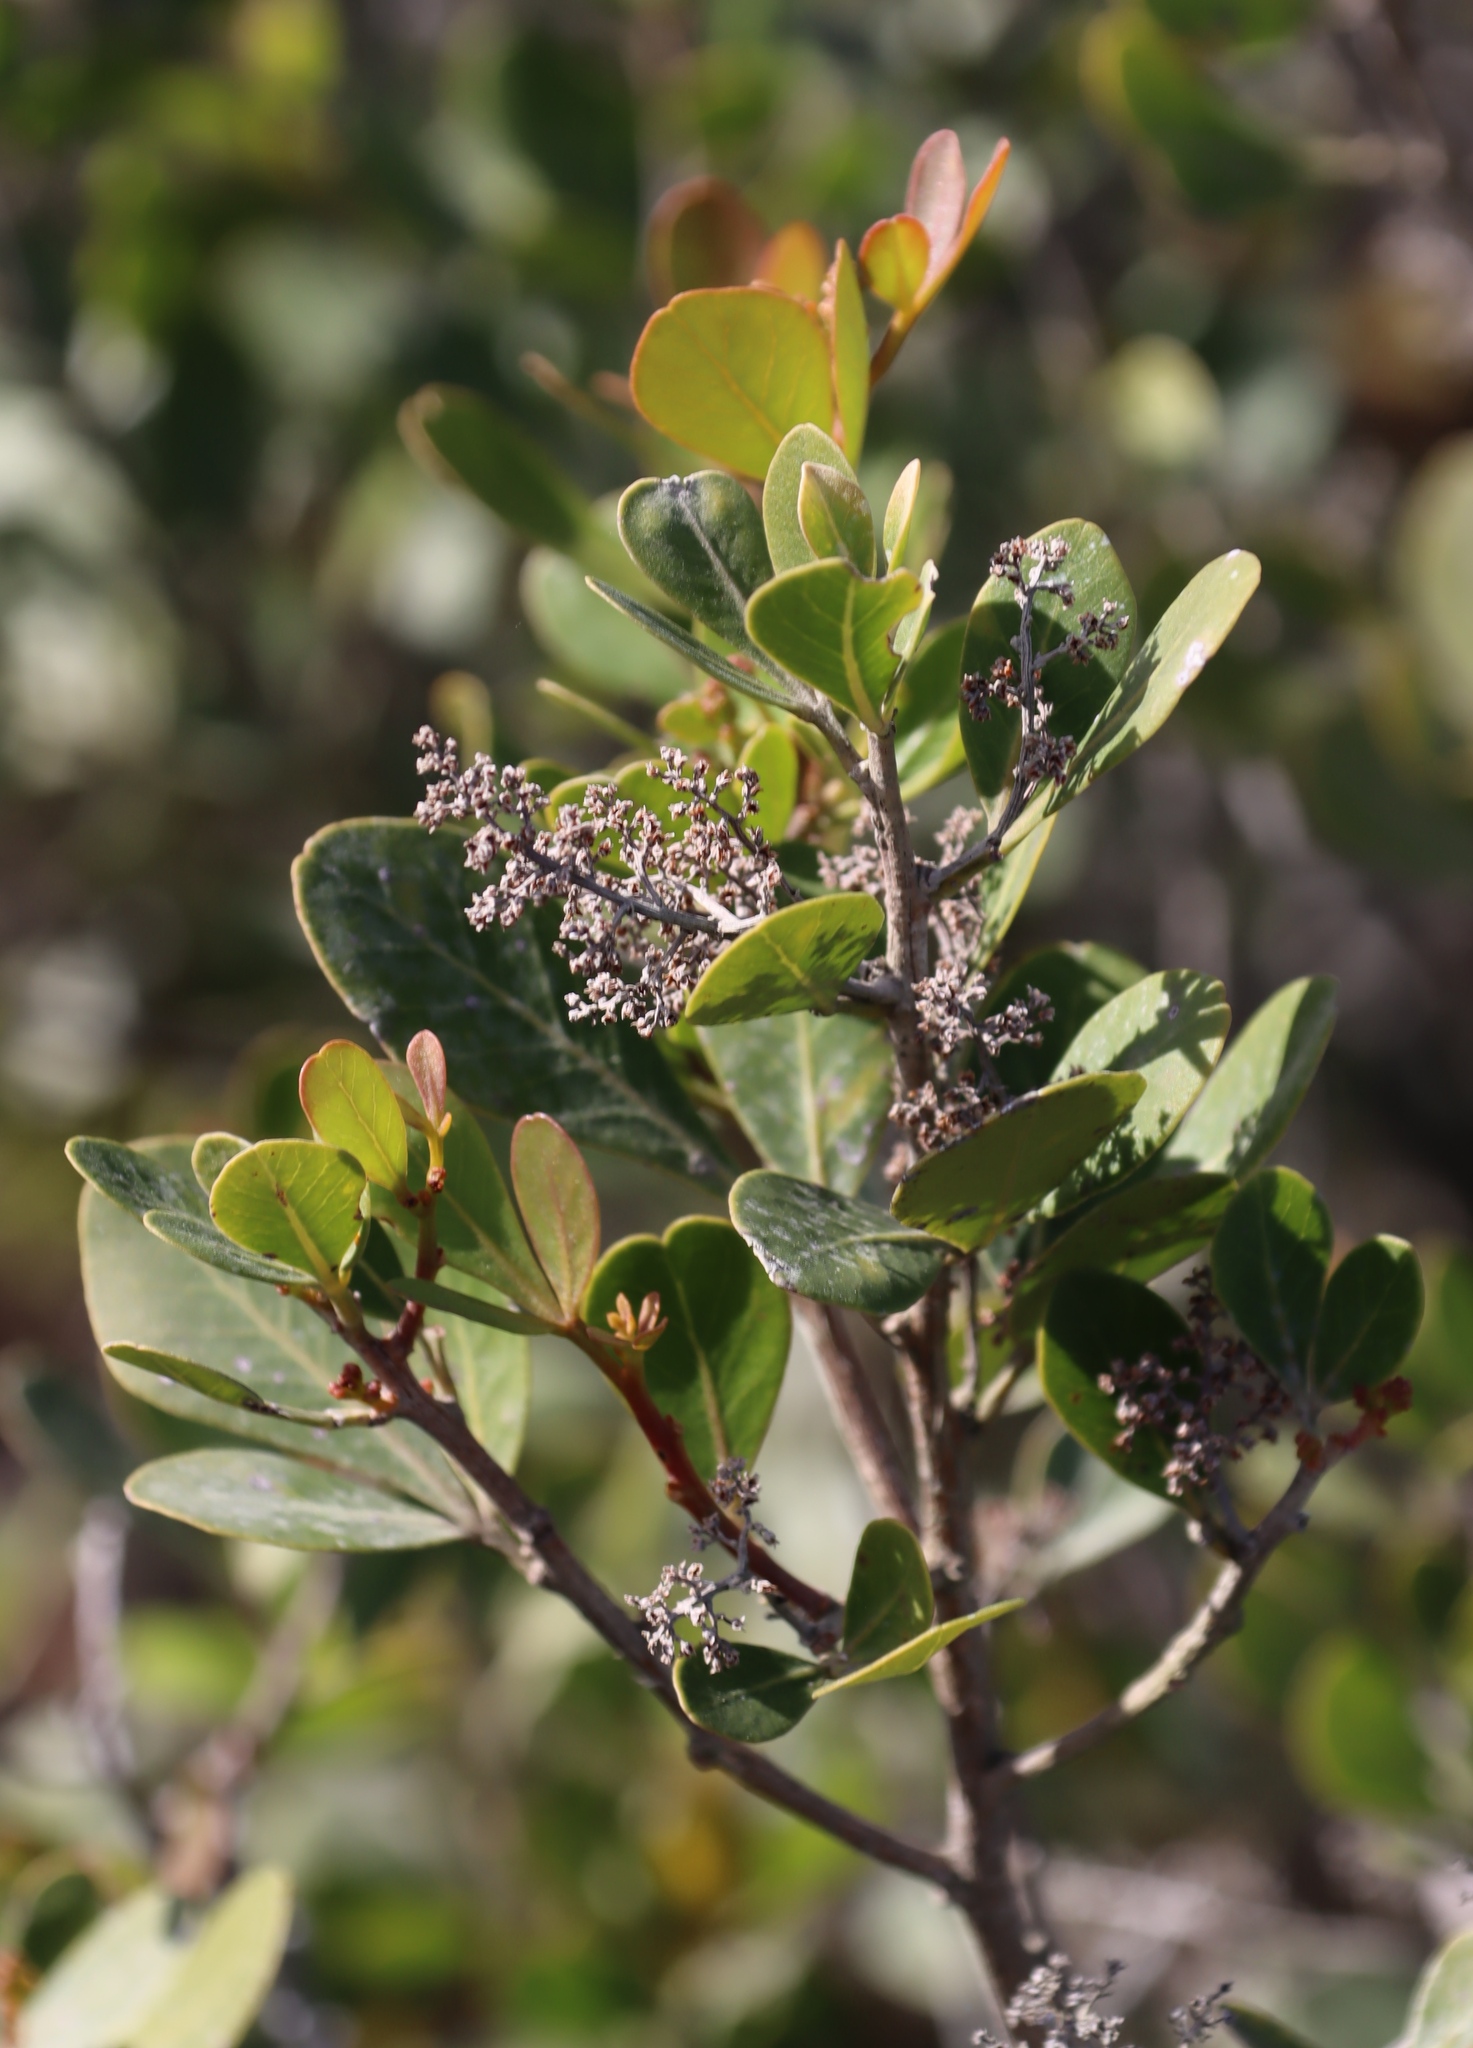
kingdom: Plantae
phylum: Tracheophyta
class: Magnoliopsida
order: Sapindales
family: Anacardiaceae
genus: Searsia
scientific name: Searsia lucida
